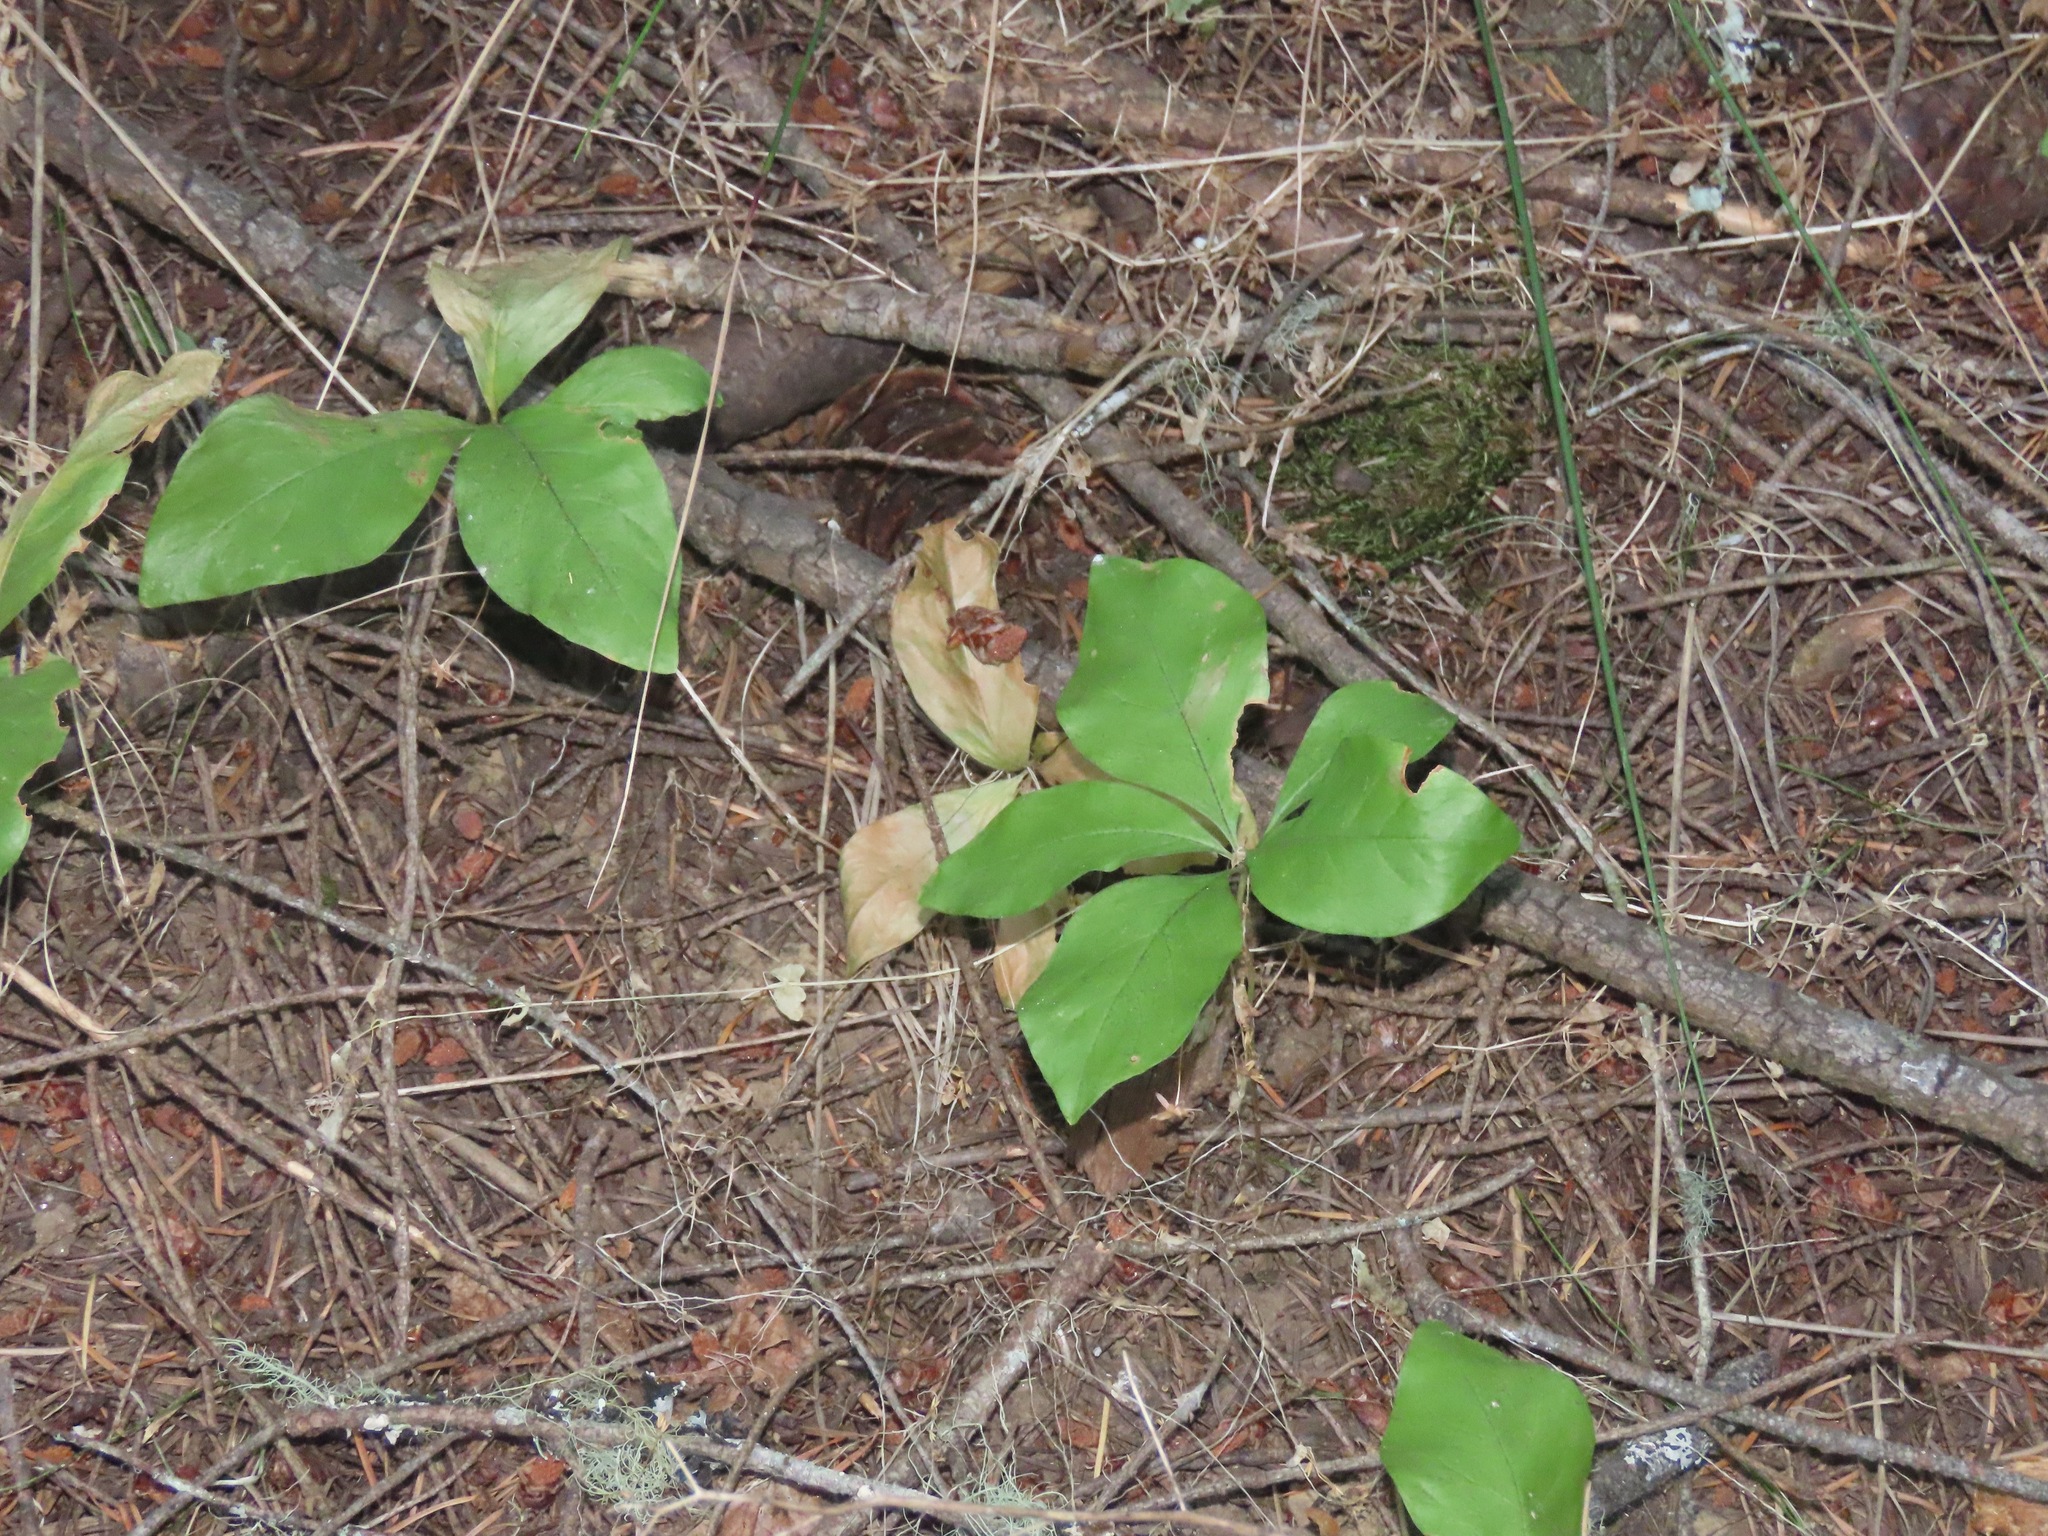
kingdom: Plantae
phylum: Tracheophyta
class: Magnoliopsida
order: Ericales
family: Primulaceae
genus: Lysimachia
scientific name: Lysimachia latifolia
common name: Pacific starflower
